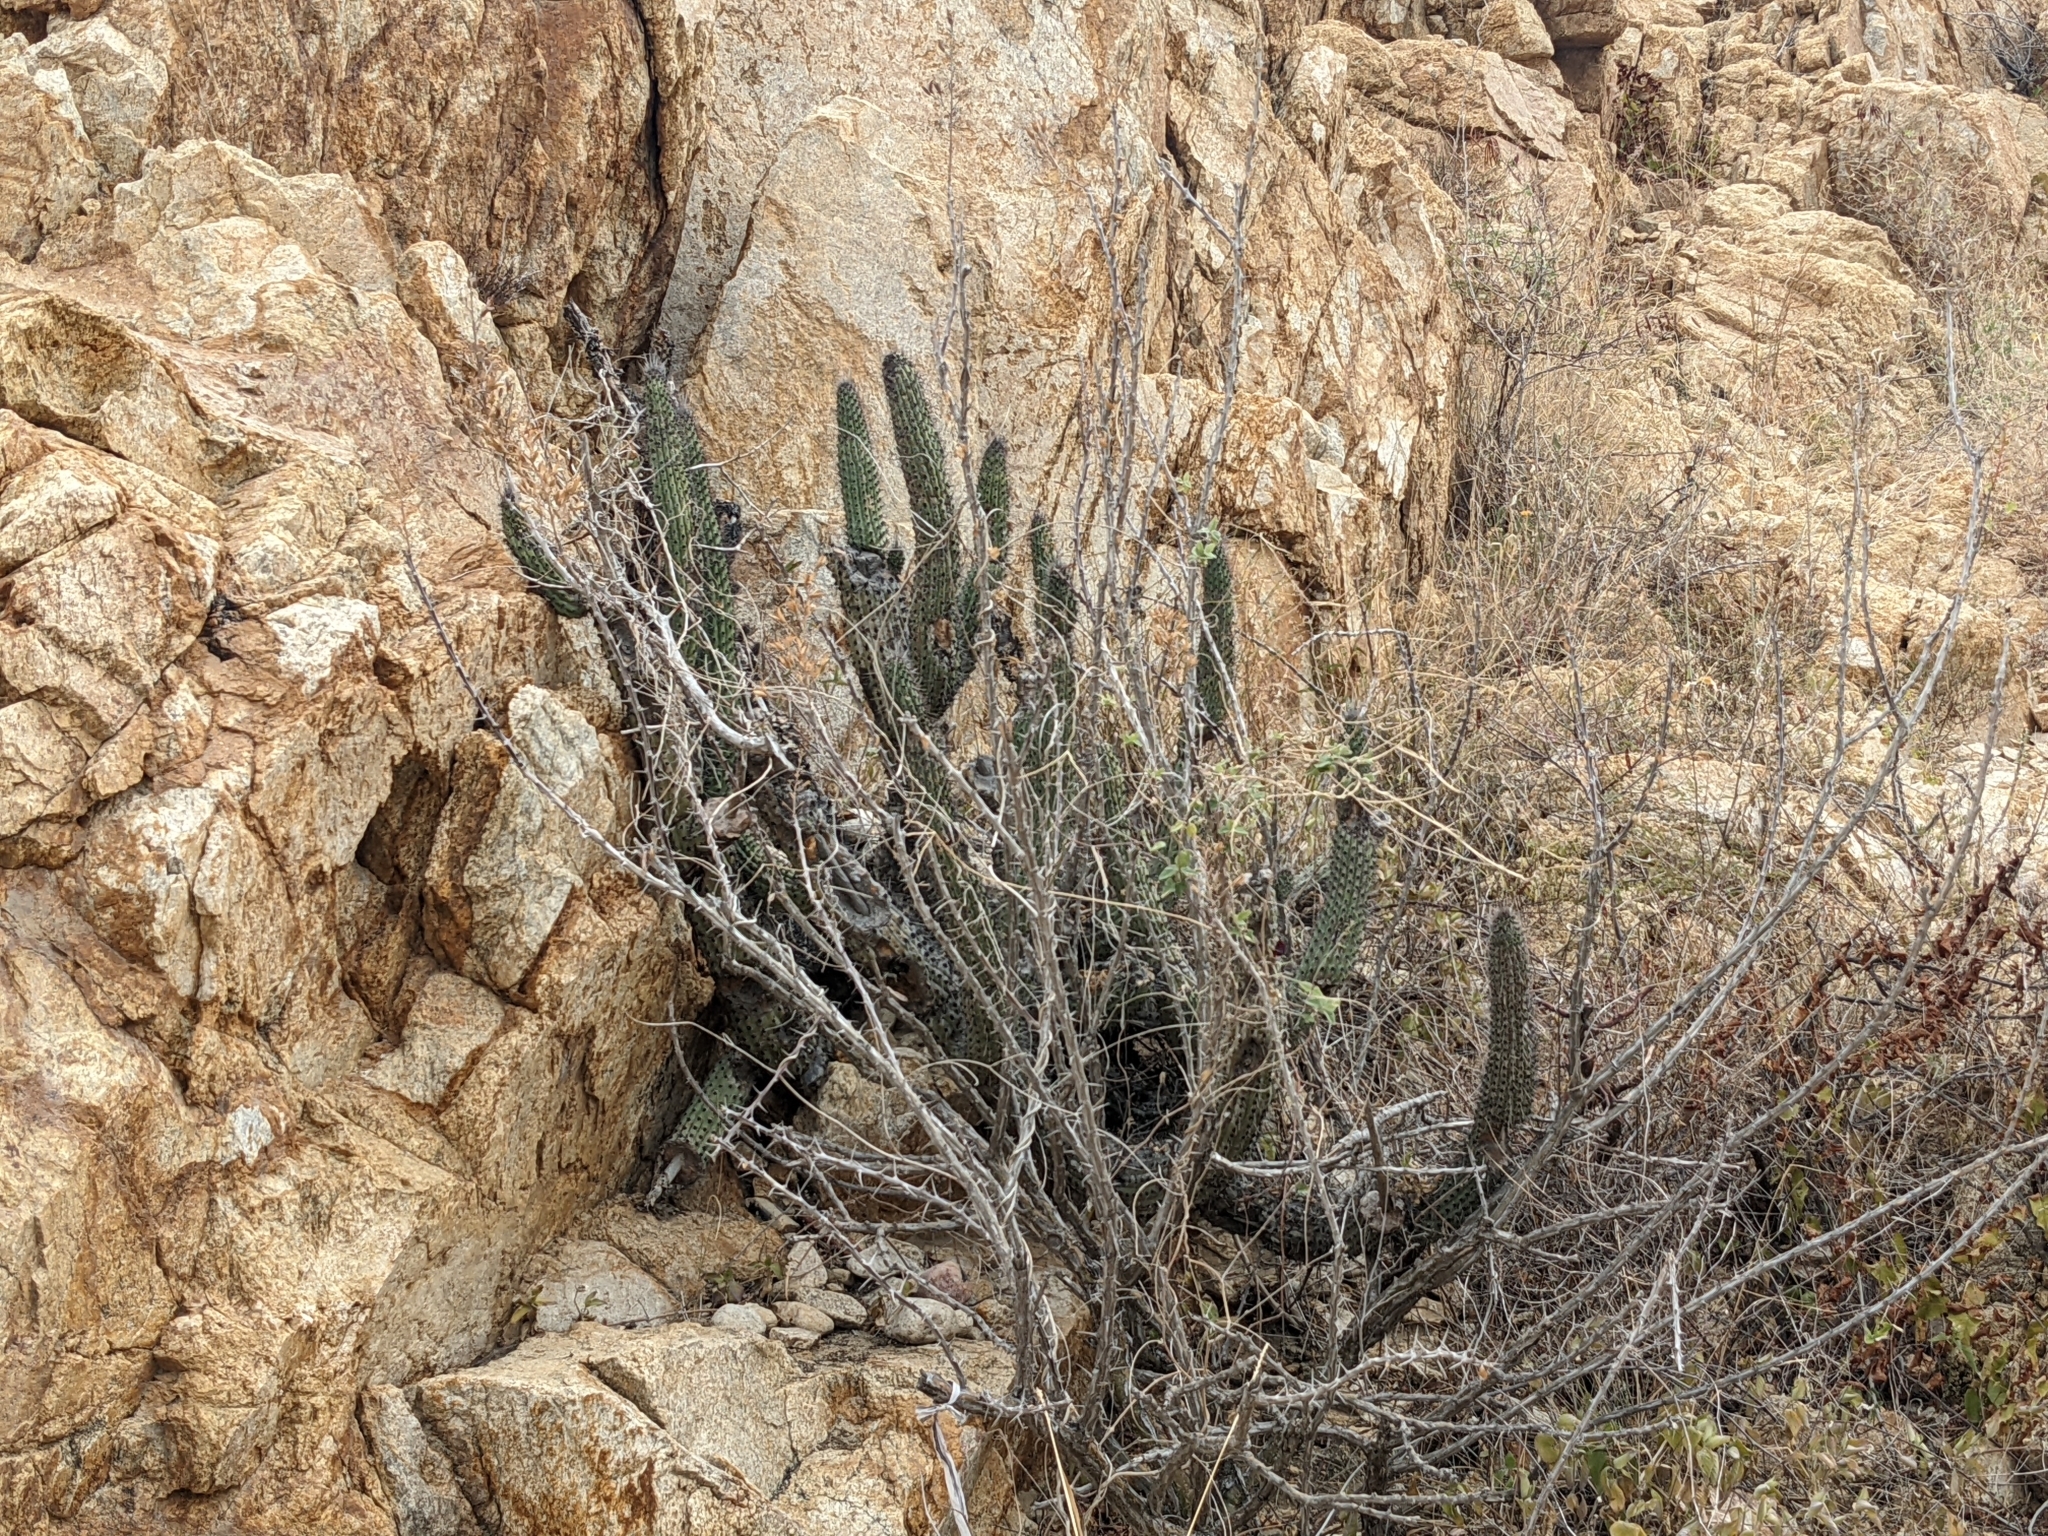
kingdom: Plantae
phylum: Tracheophyta
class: Magnoliopsida
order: Caryophyllales
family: Cactaceae
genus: Stenocereus
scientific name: Stenocereus thurberi
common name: Organ pipe cactus
